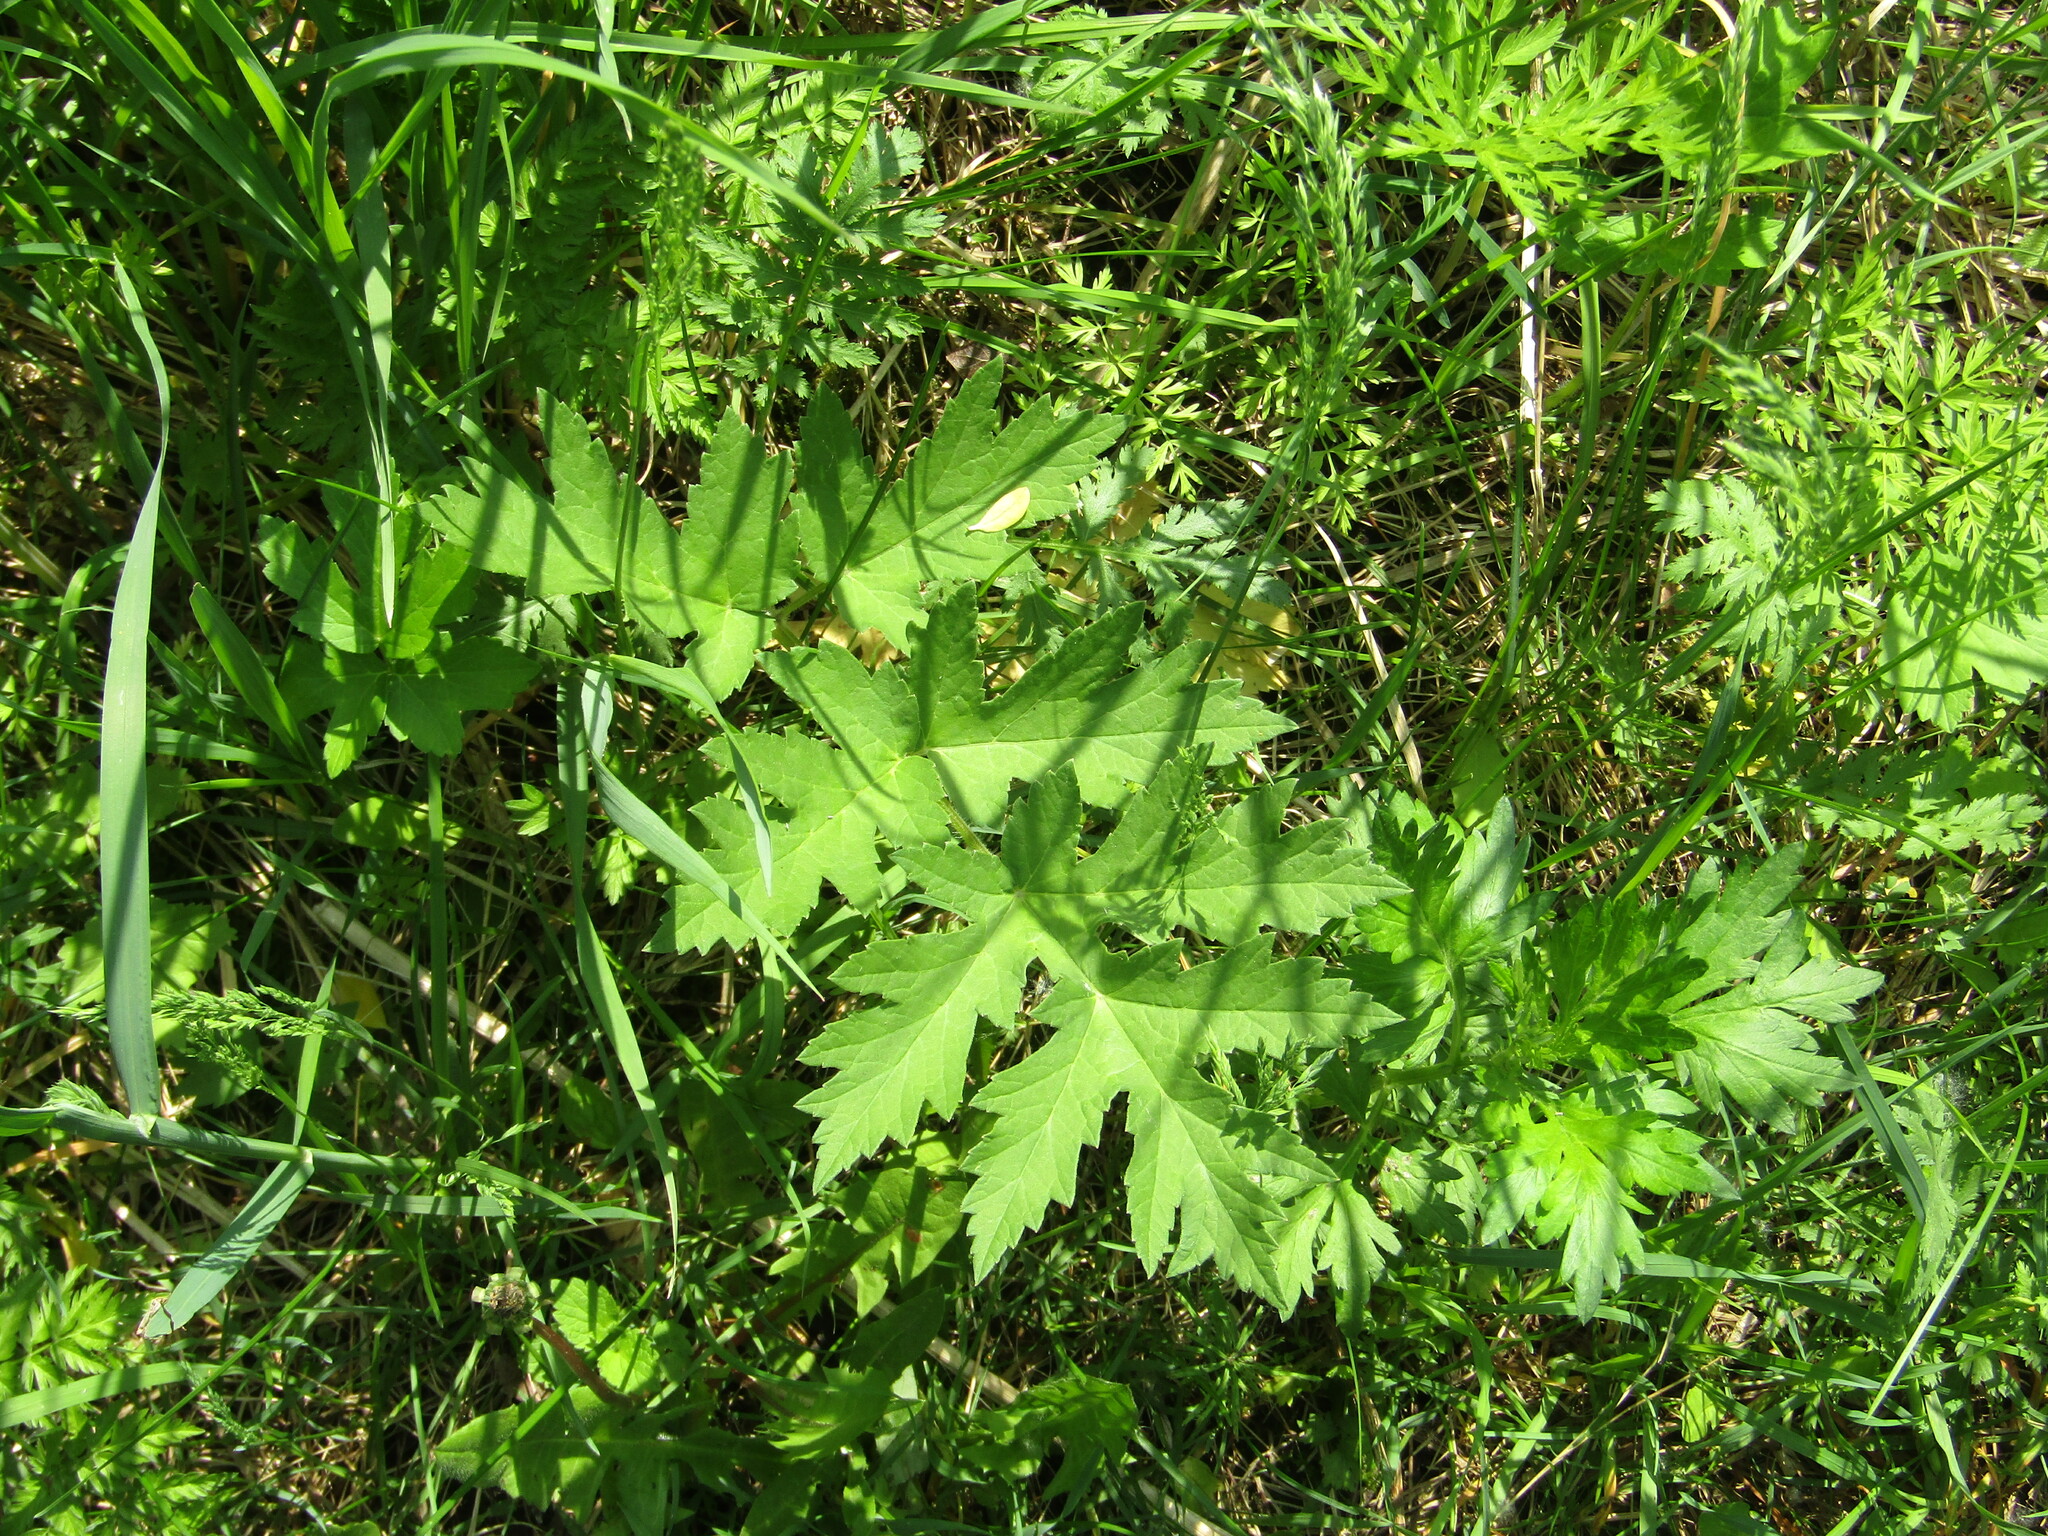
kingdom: Plantae
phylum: Tracheophyta
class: Magnoliopsida
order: Apiales
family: Apiaceae
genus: Heracleum
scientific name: Heracleum sphondylium
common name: Hogweed
